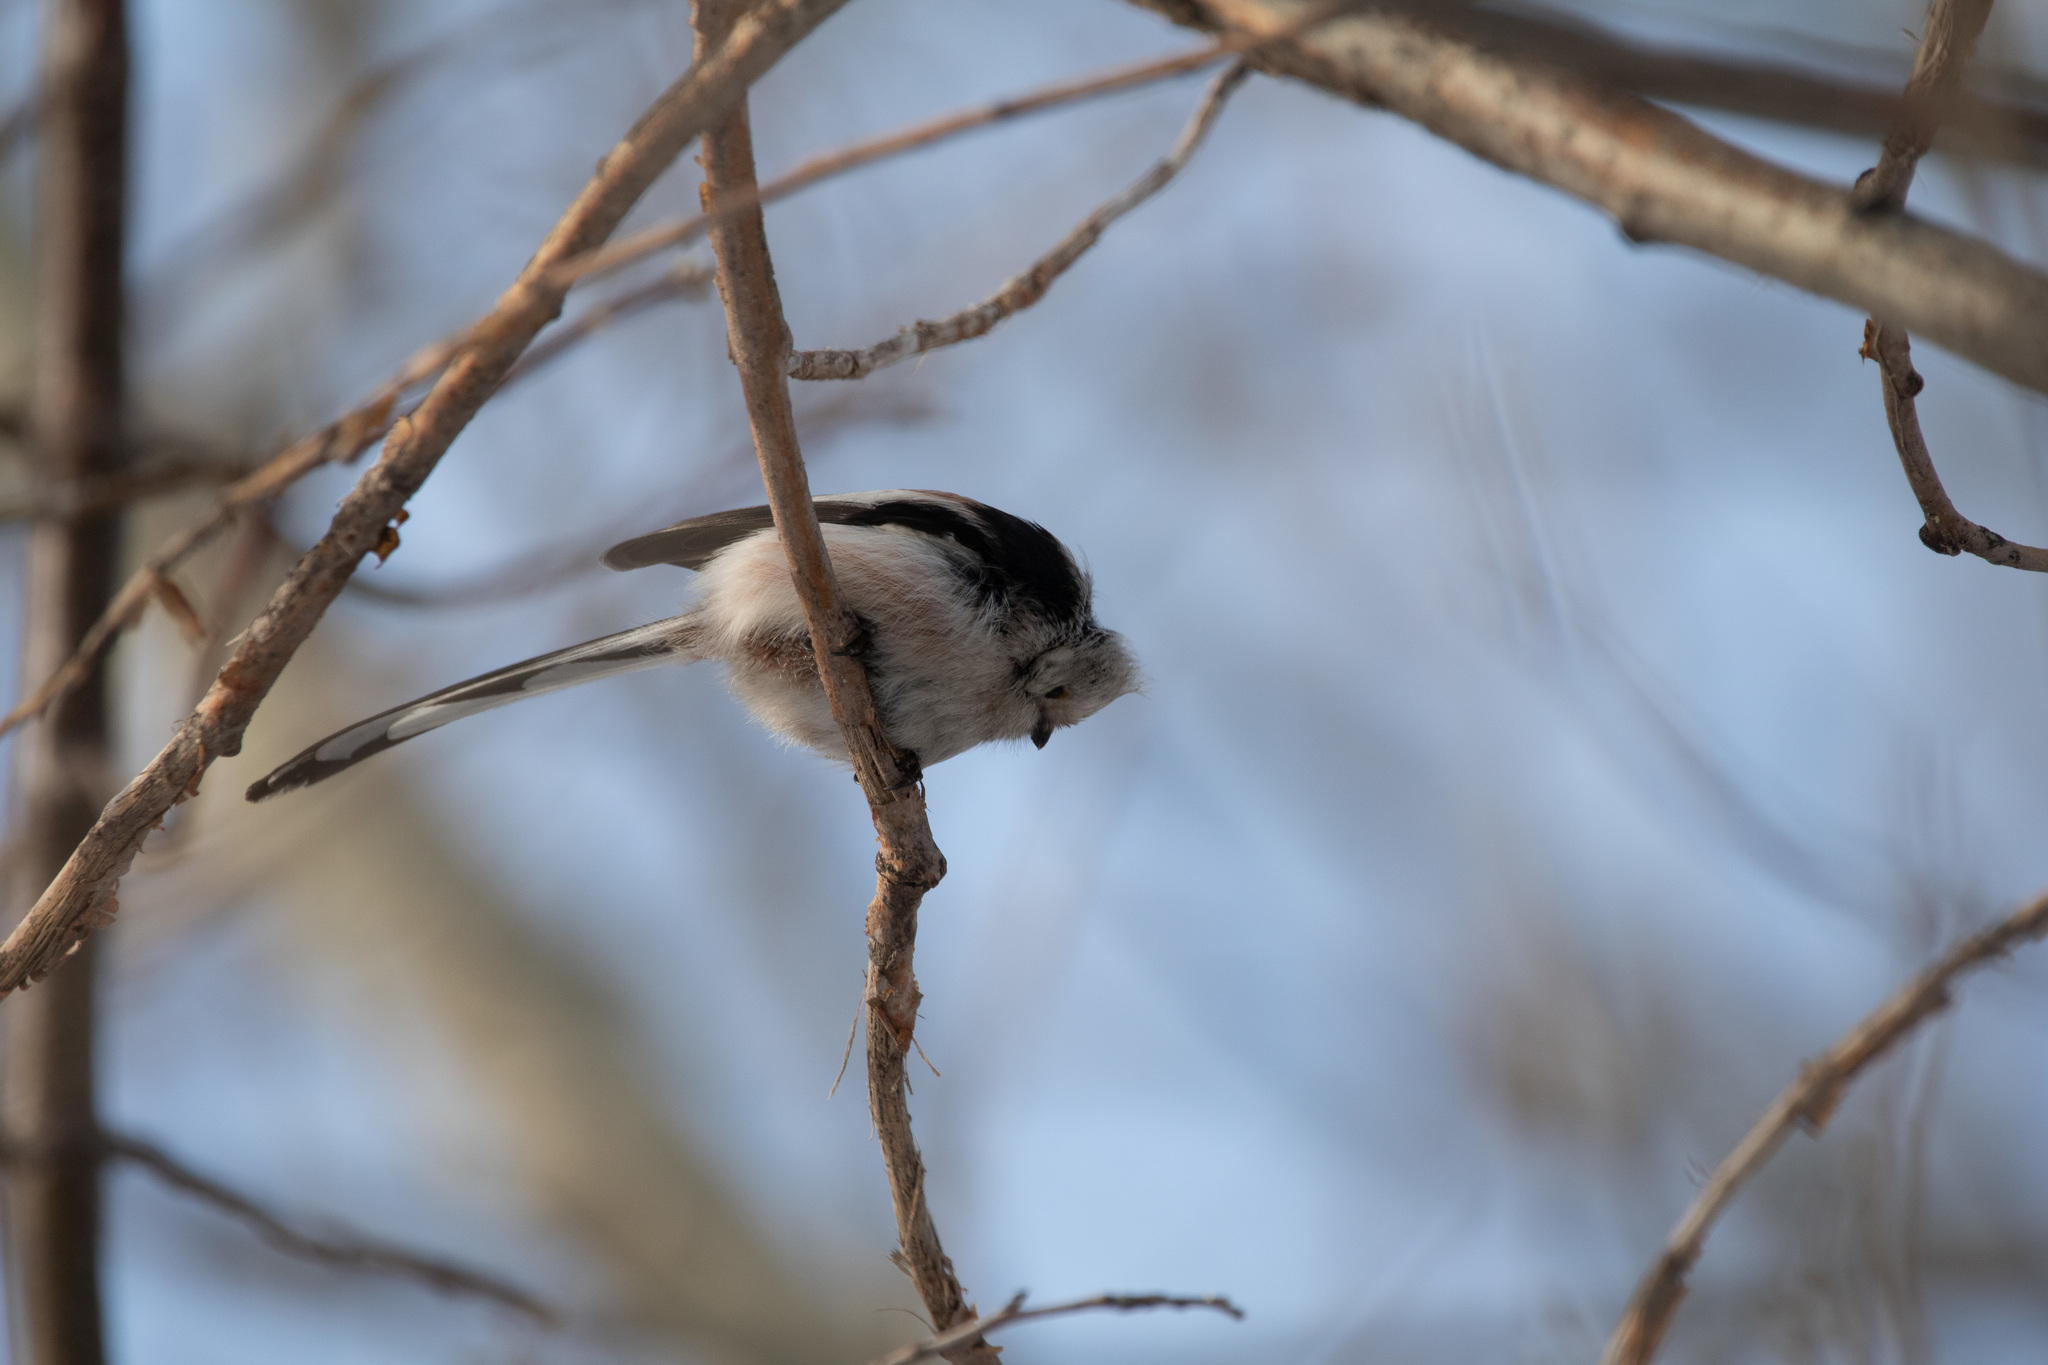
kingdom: Animalia
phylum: Chordata
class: Aves
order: Passeriformes
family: Aegithalidae
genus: Aegithalos
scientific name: Aegithalos caudatus
